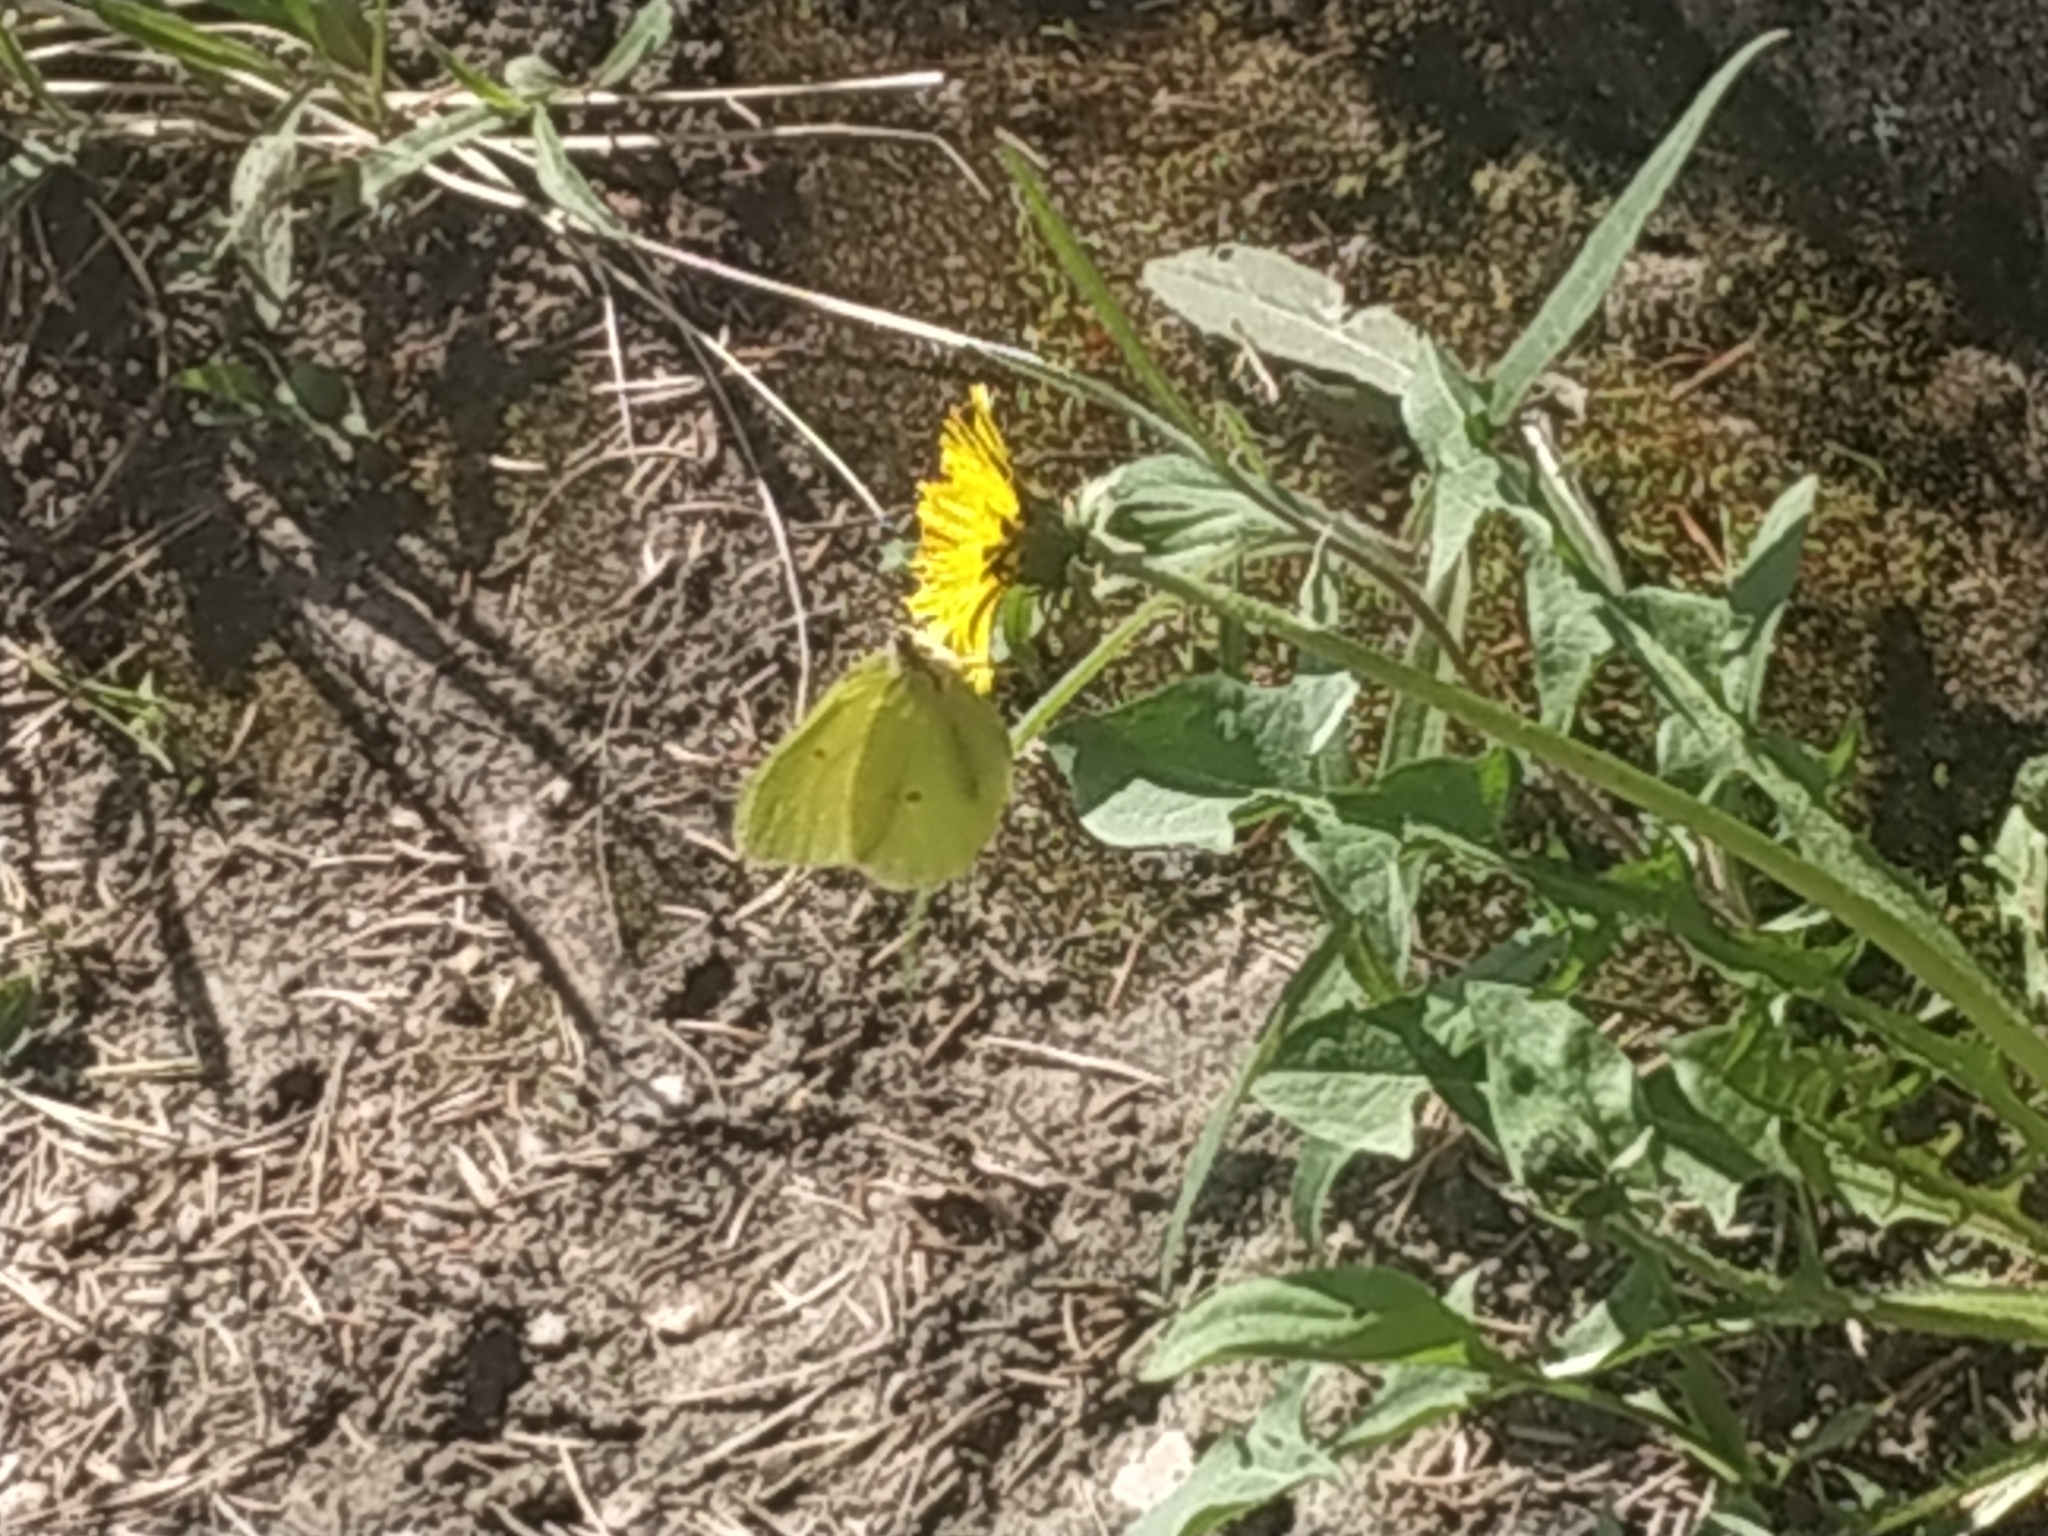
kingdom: Animalia
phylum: Arthropoda
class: Insecta
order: Lepidoptera
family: Pieridae
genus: Gonepteryx
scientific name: Gonepteryx rhamni
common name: Brimstone
